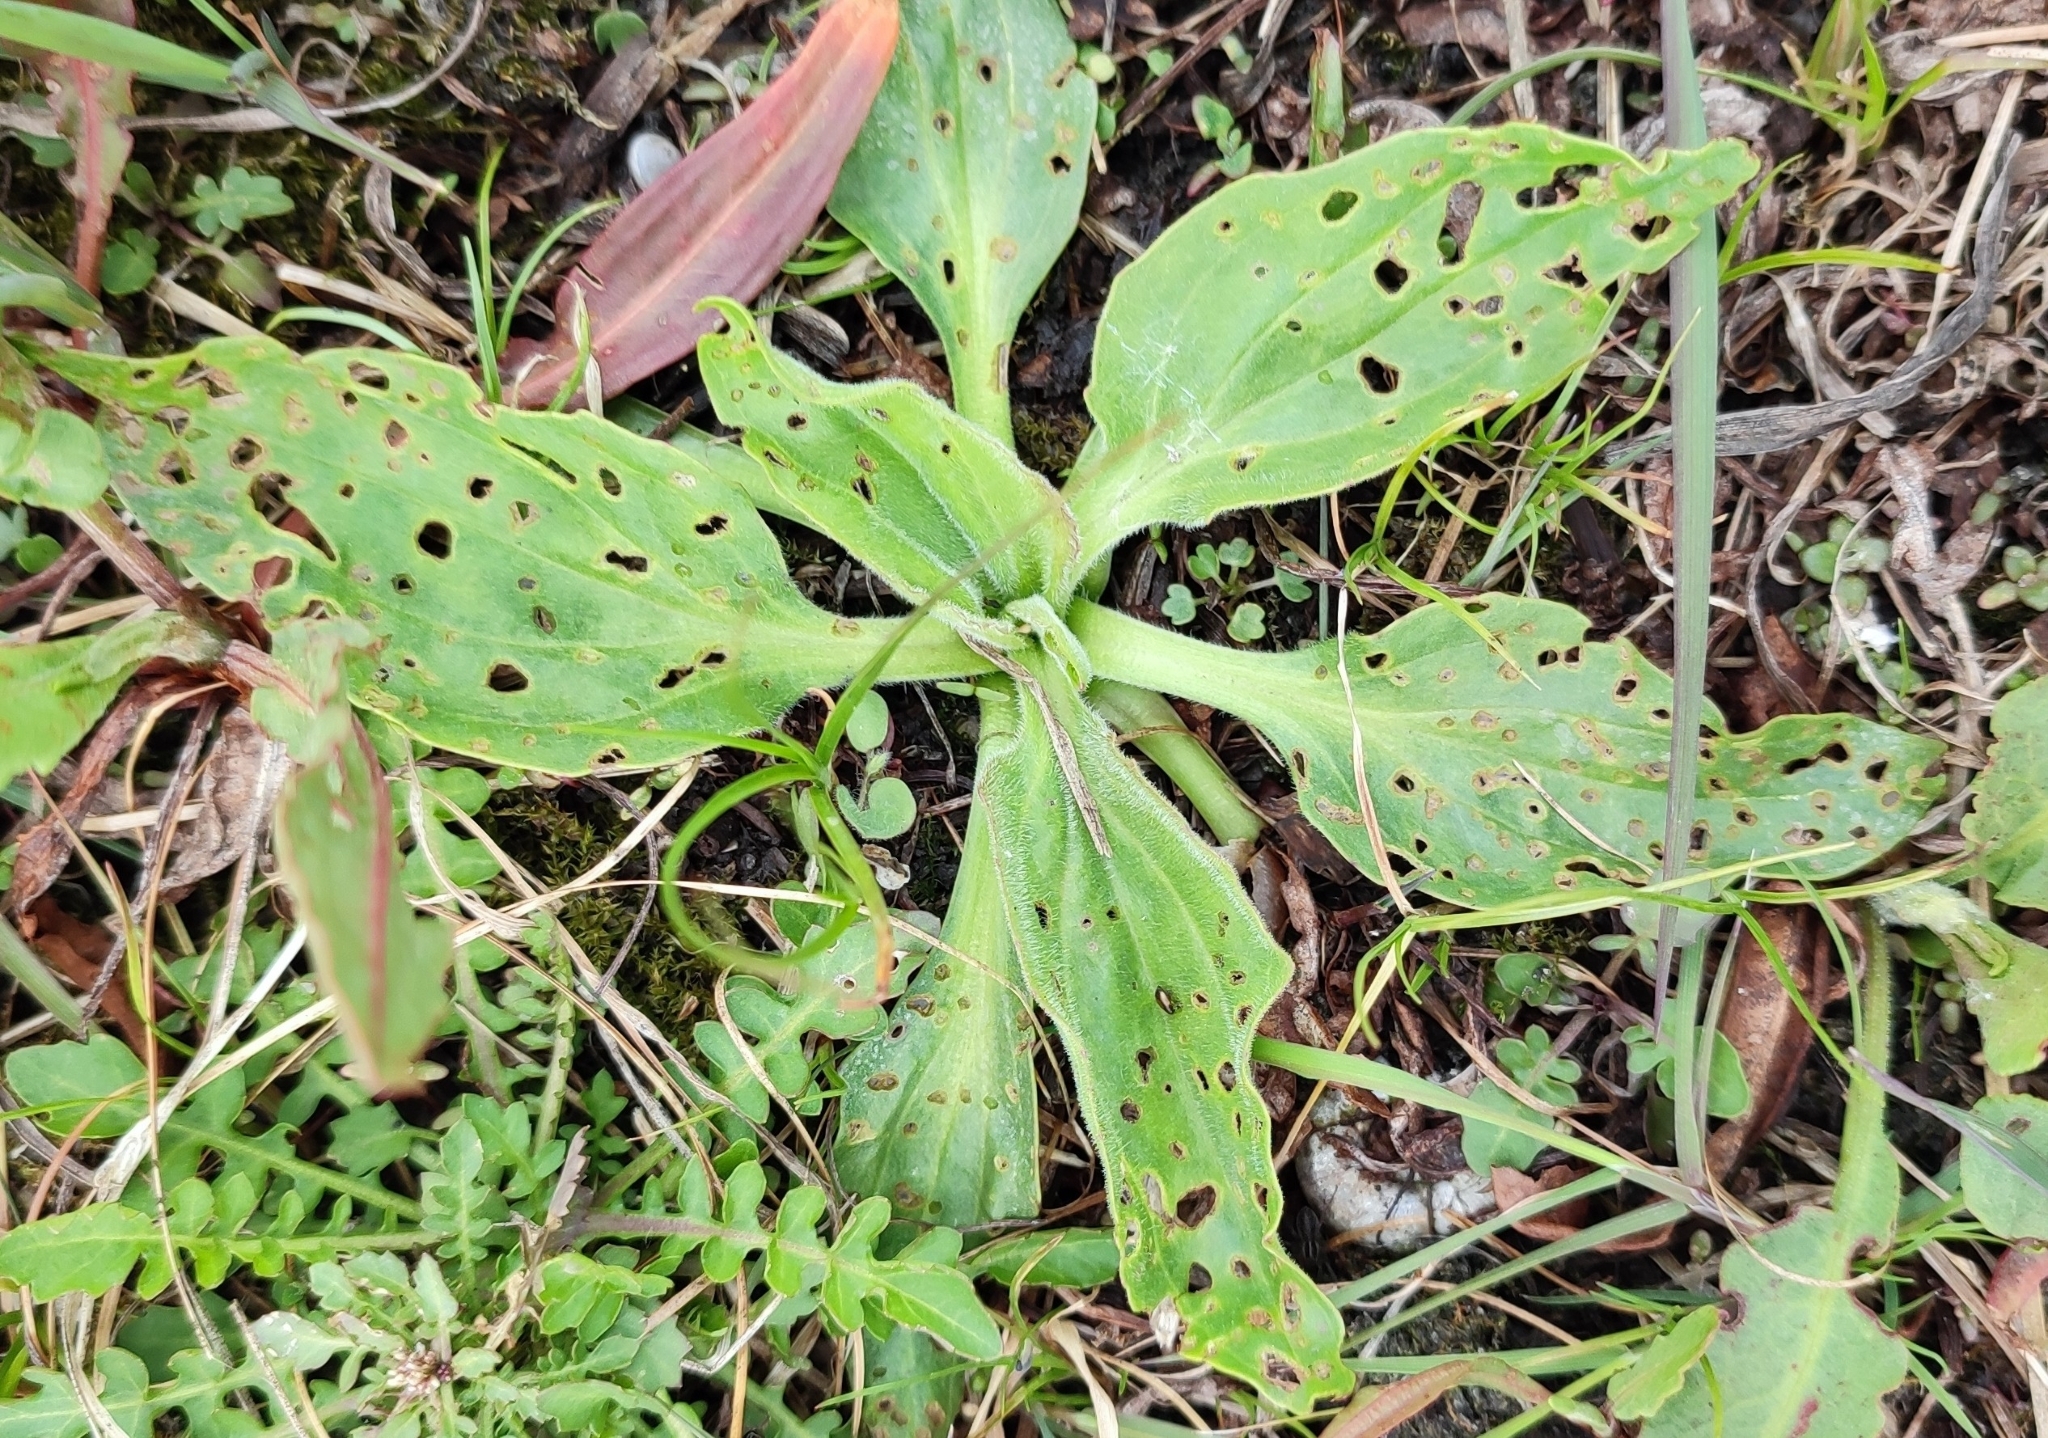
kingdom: Plantae
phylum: Tracheophyta
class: Magnoliopsida
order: Lamiales
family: Plantaginaceae
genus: Plantago
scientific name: Plantago uliginosa
